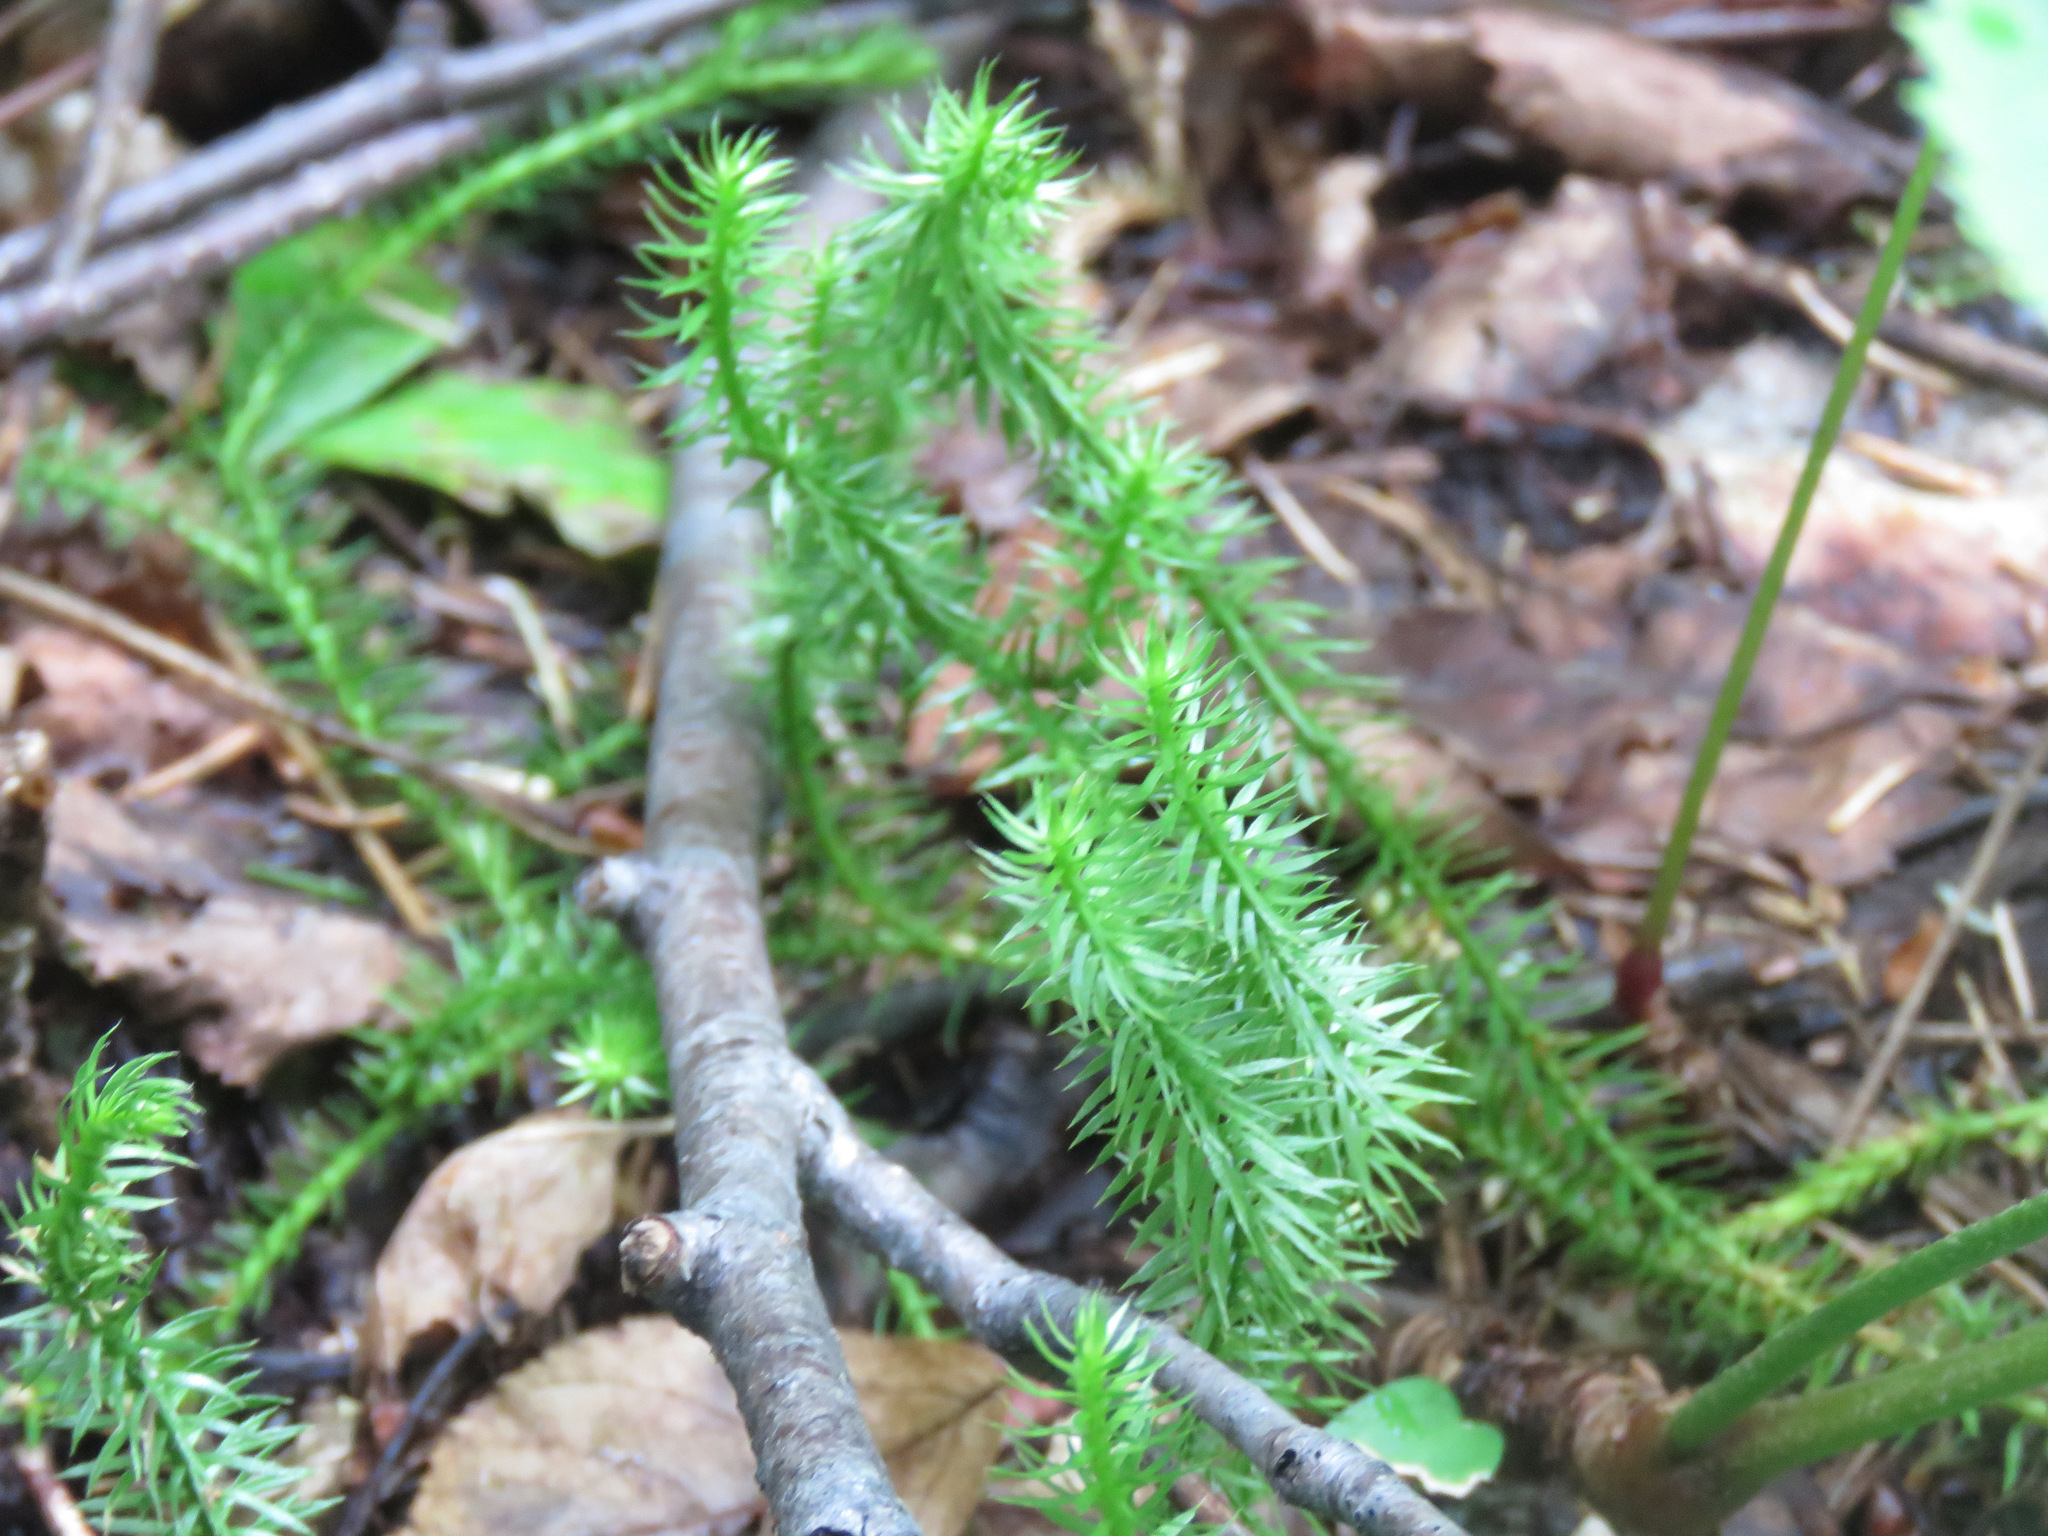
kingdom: Plantae
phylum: Tracheophyta
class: Lycopodiopsida
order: Lycopodiales
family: Lycopodiaceae
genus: Spinulum
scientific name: Spinulum annotinum
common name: Interrupted club-moss
